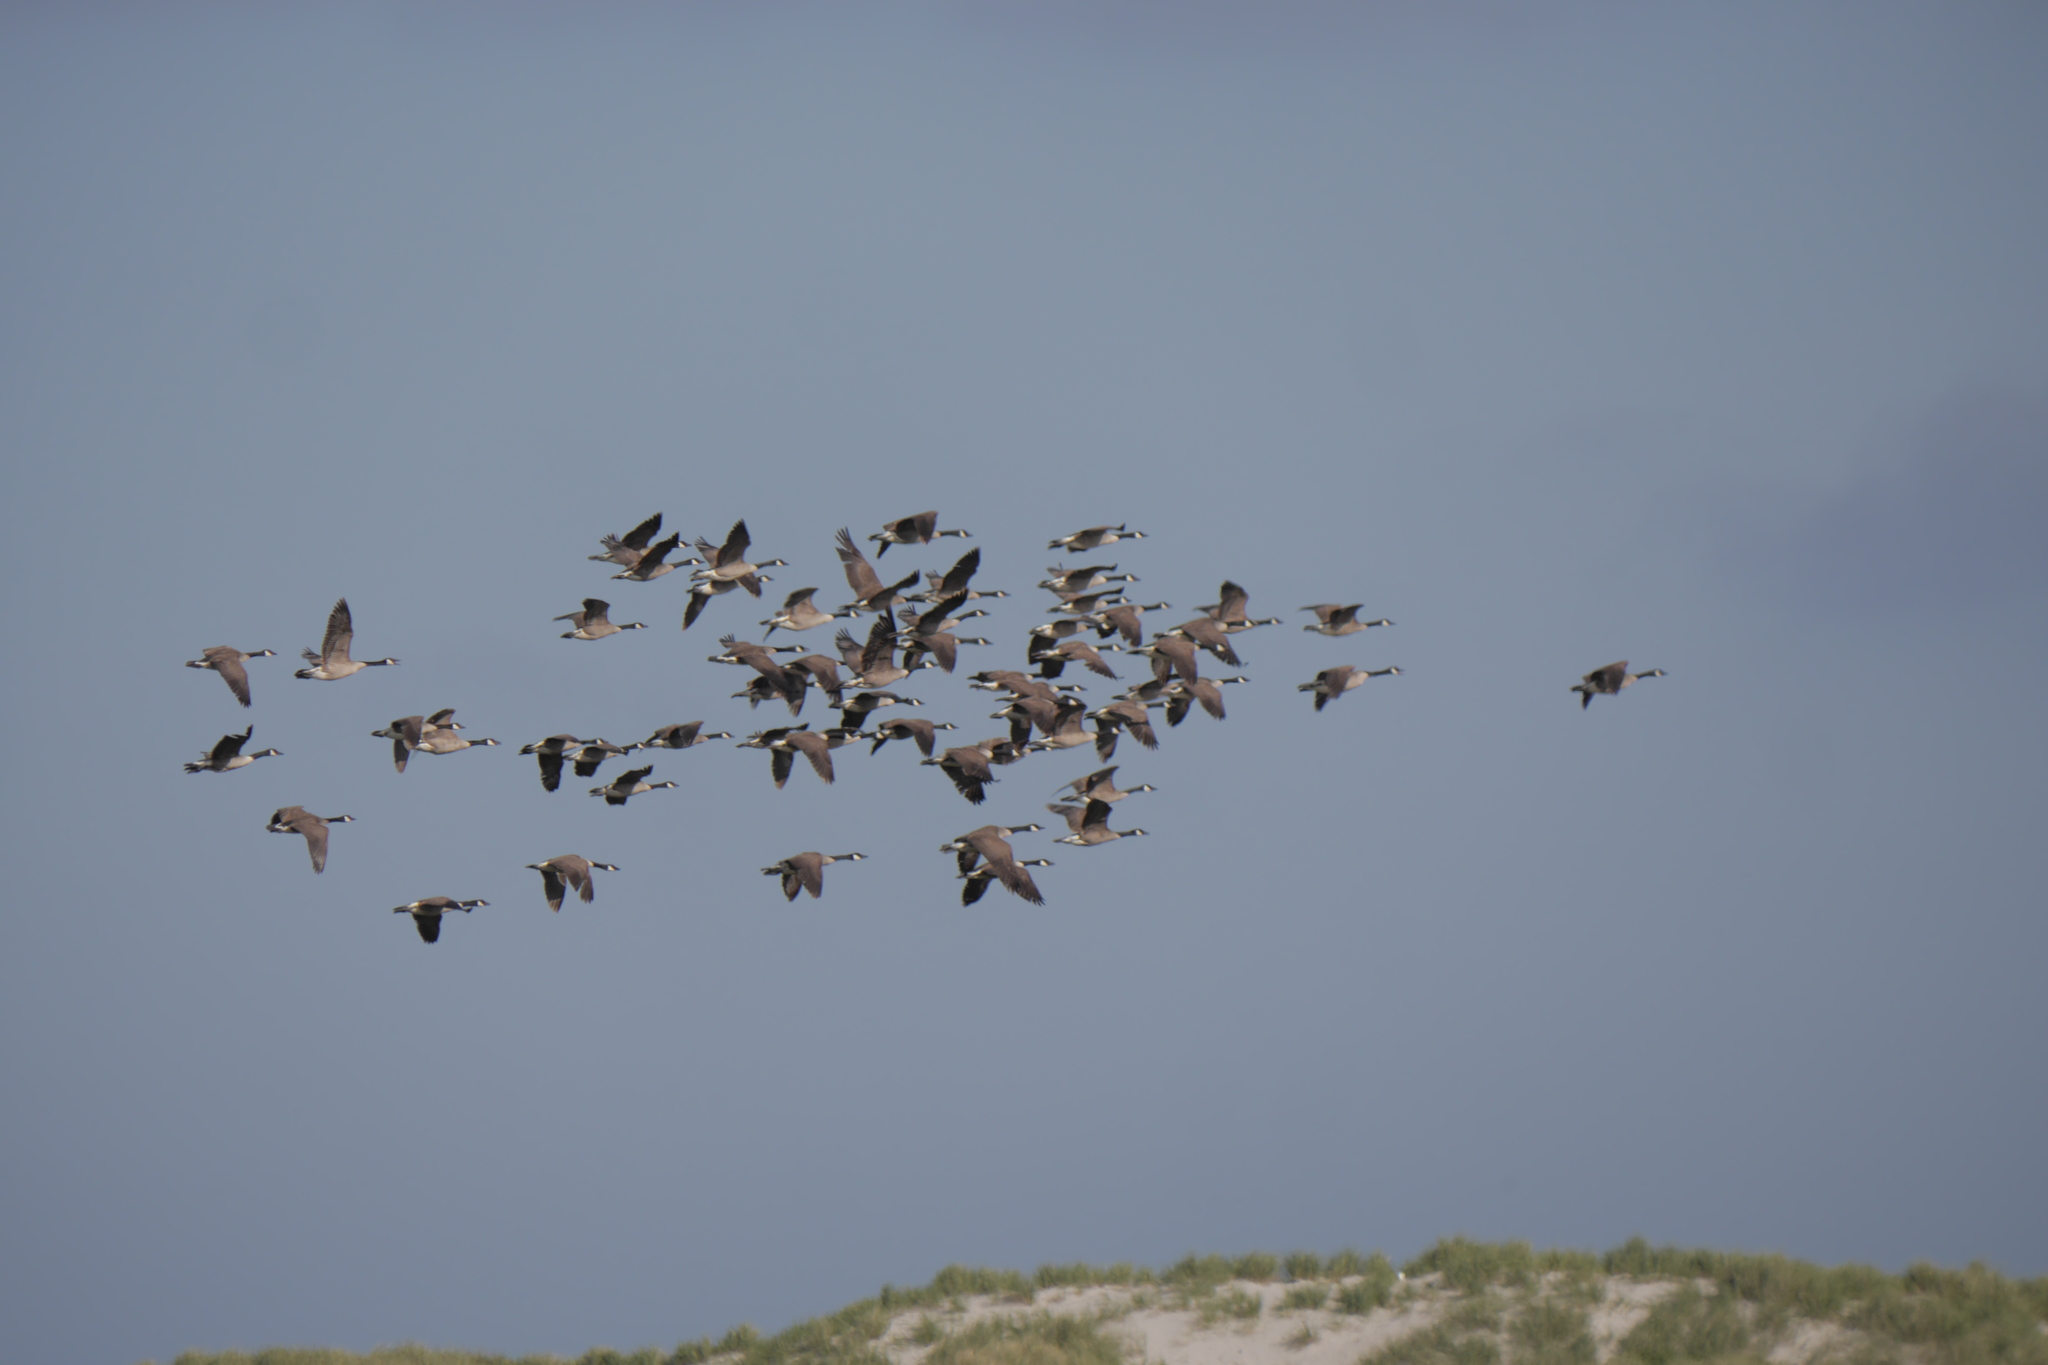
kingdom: Animalia
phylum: Chordata
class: Aves
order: Anseriformes
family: Anatidae
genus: Branta
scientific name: Branta canadensis
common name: Canada goose
